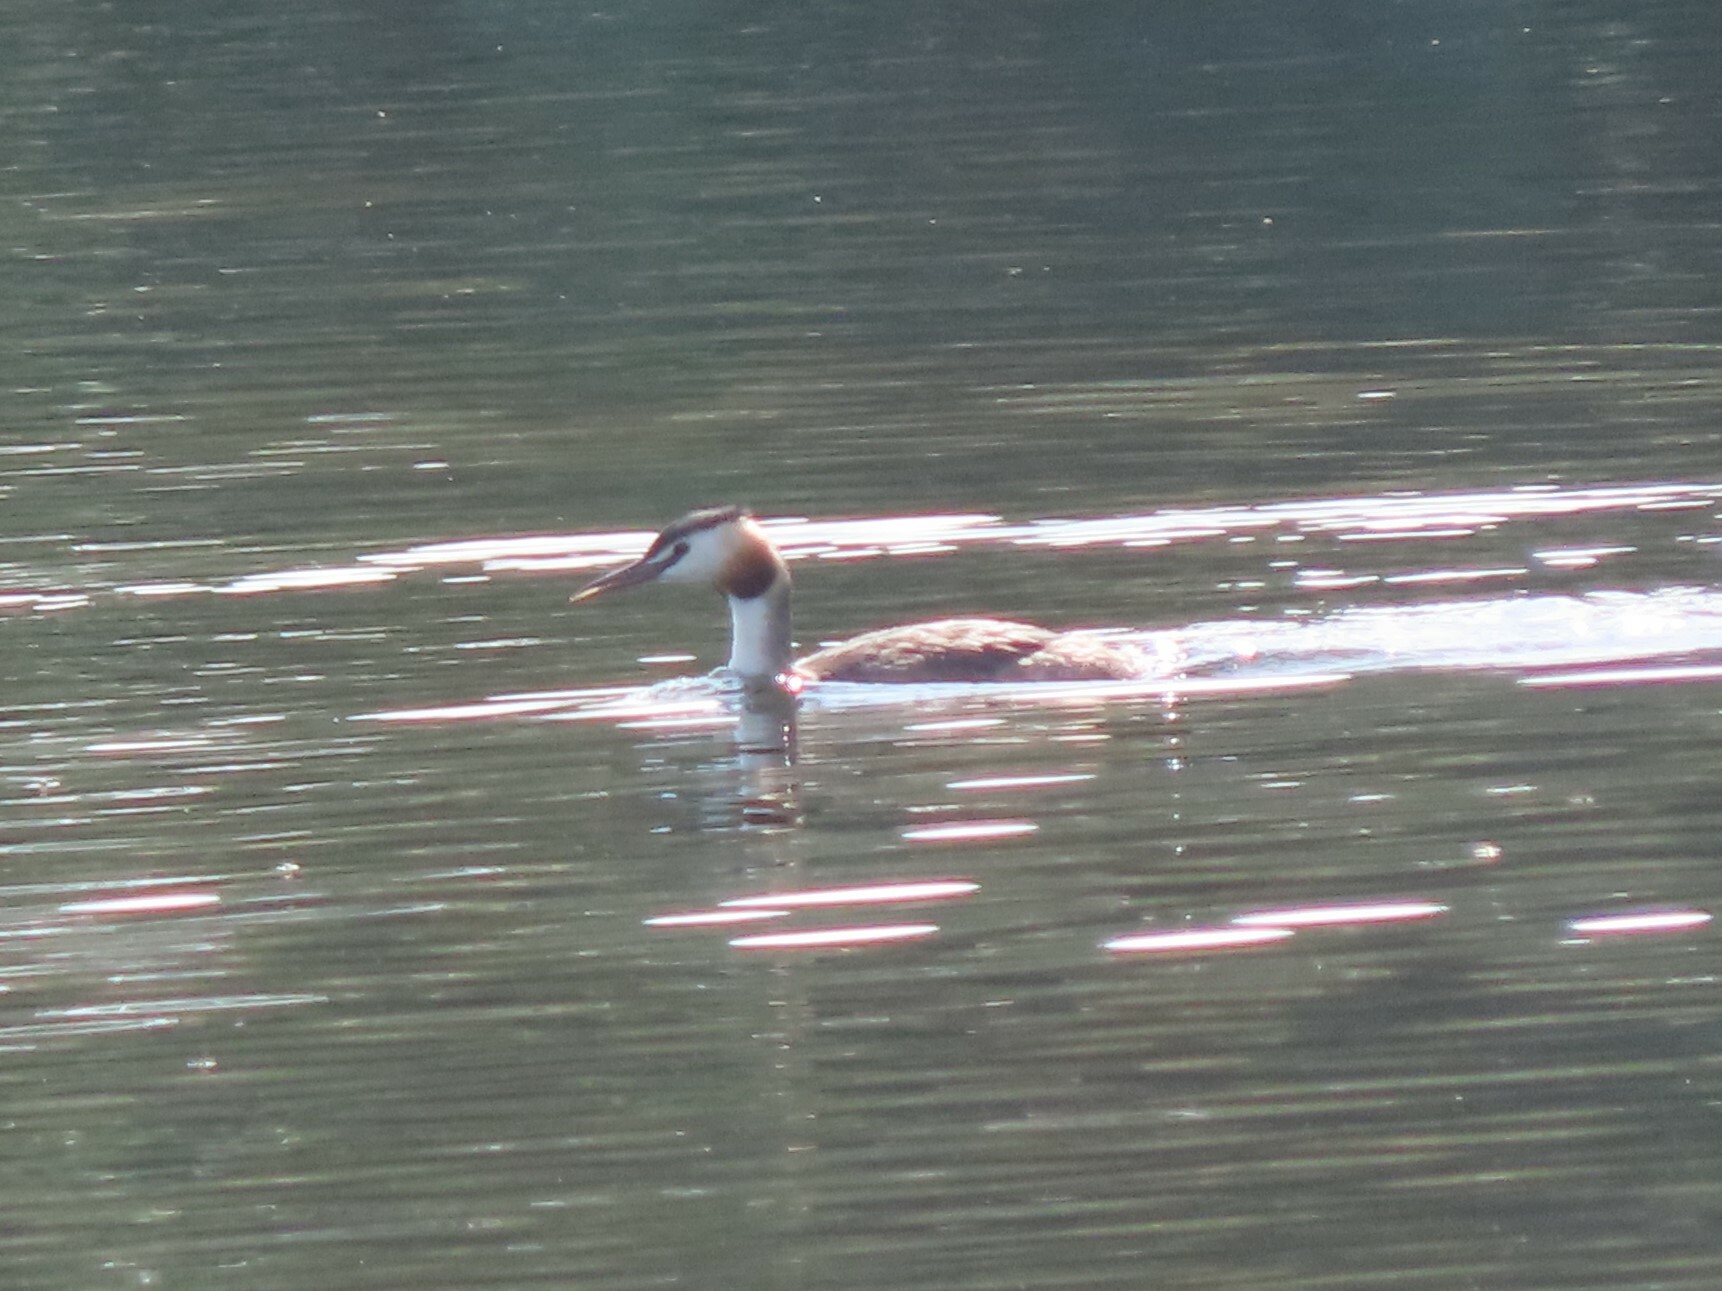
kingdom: Animalia
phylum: Chordata
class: Aves
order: Podicipediformes
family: Podicipedidae
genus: Podiceps
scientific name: Podiceps cristatus
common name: Great crested grebe
